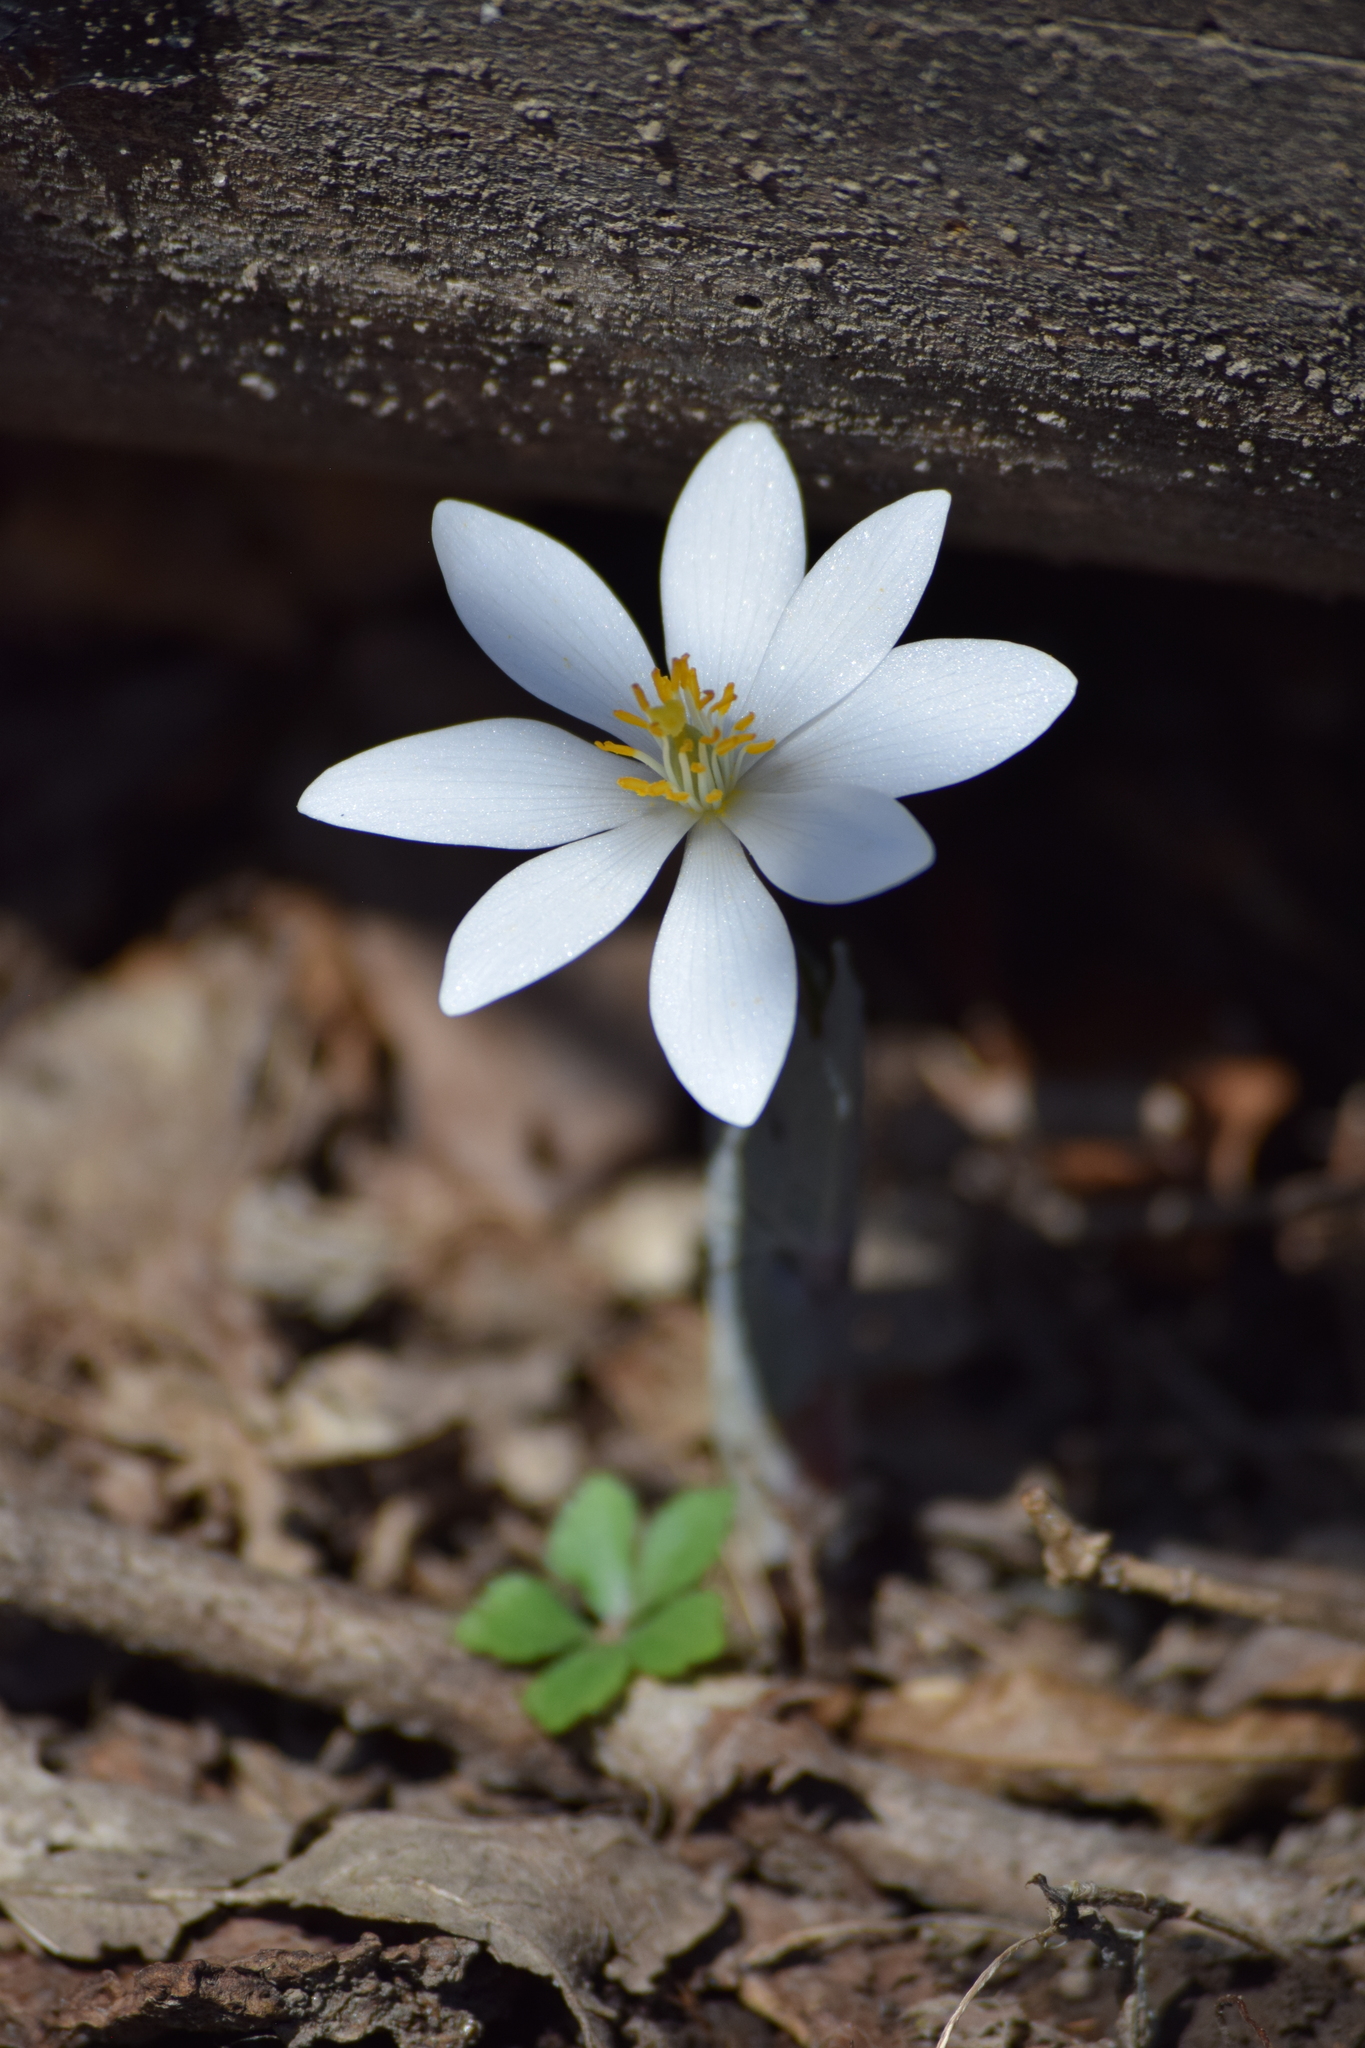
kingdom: Plantae
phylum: Tracheophyta
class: Magnoliopsida
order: Ranunculales
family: Papaveraceae
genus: Sanguinaria
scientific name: Sanguinaria canadensis
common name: Bloodroot
